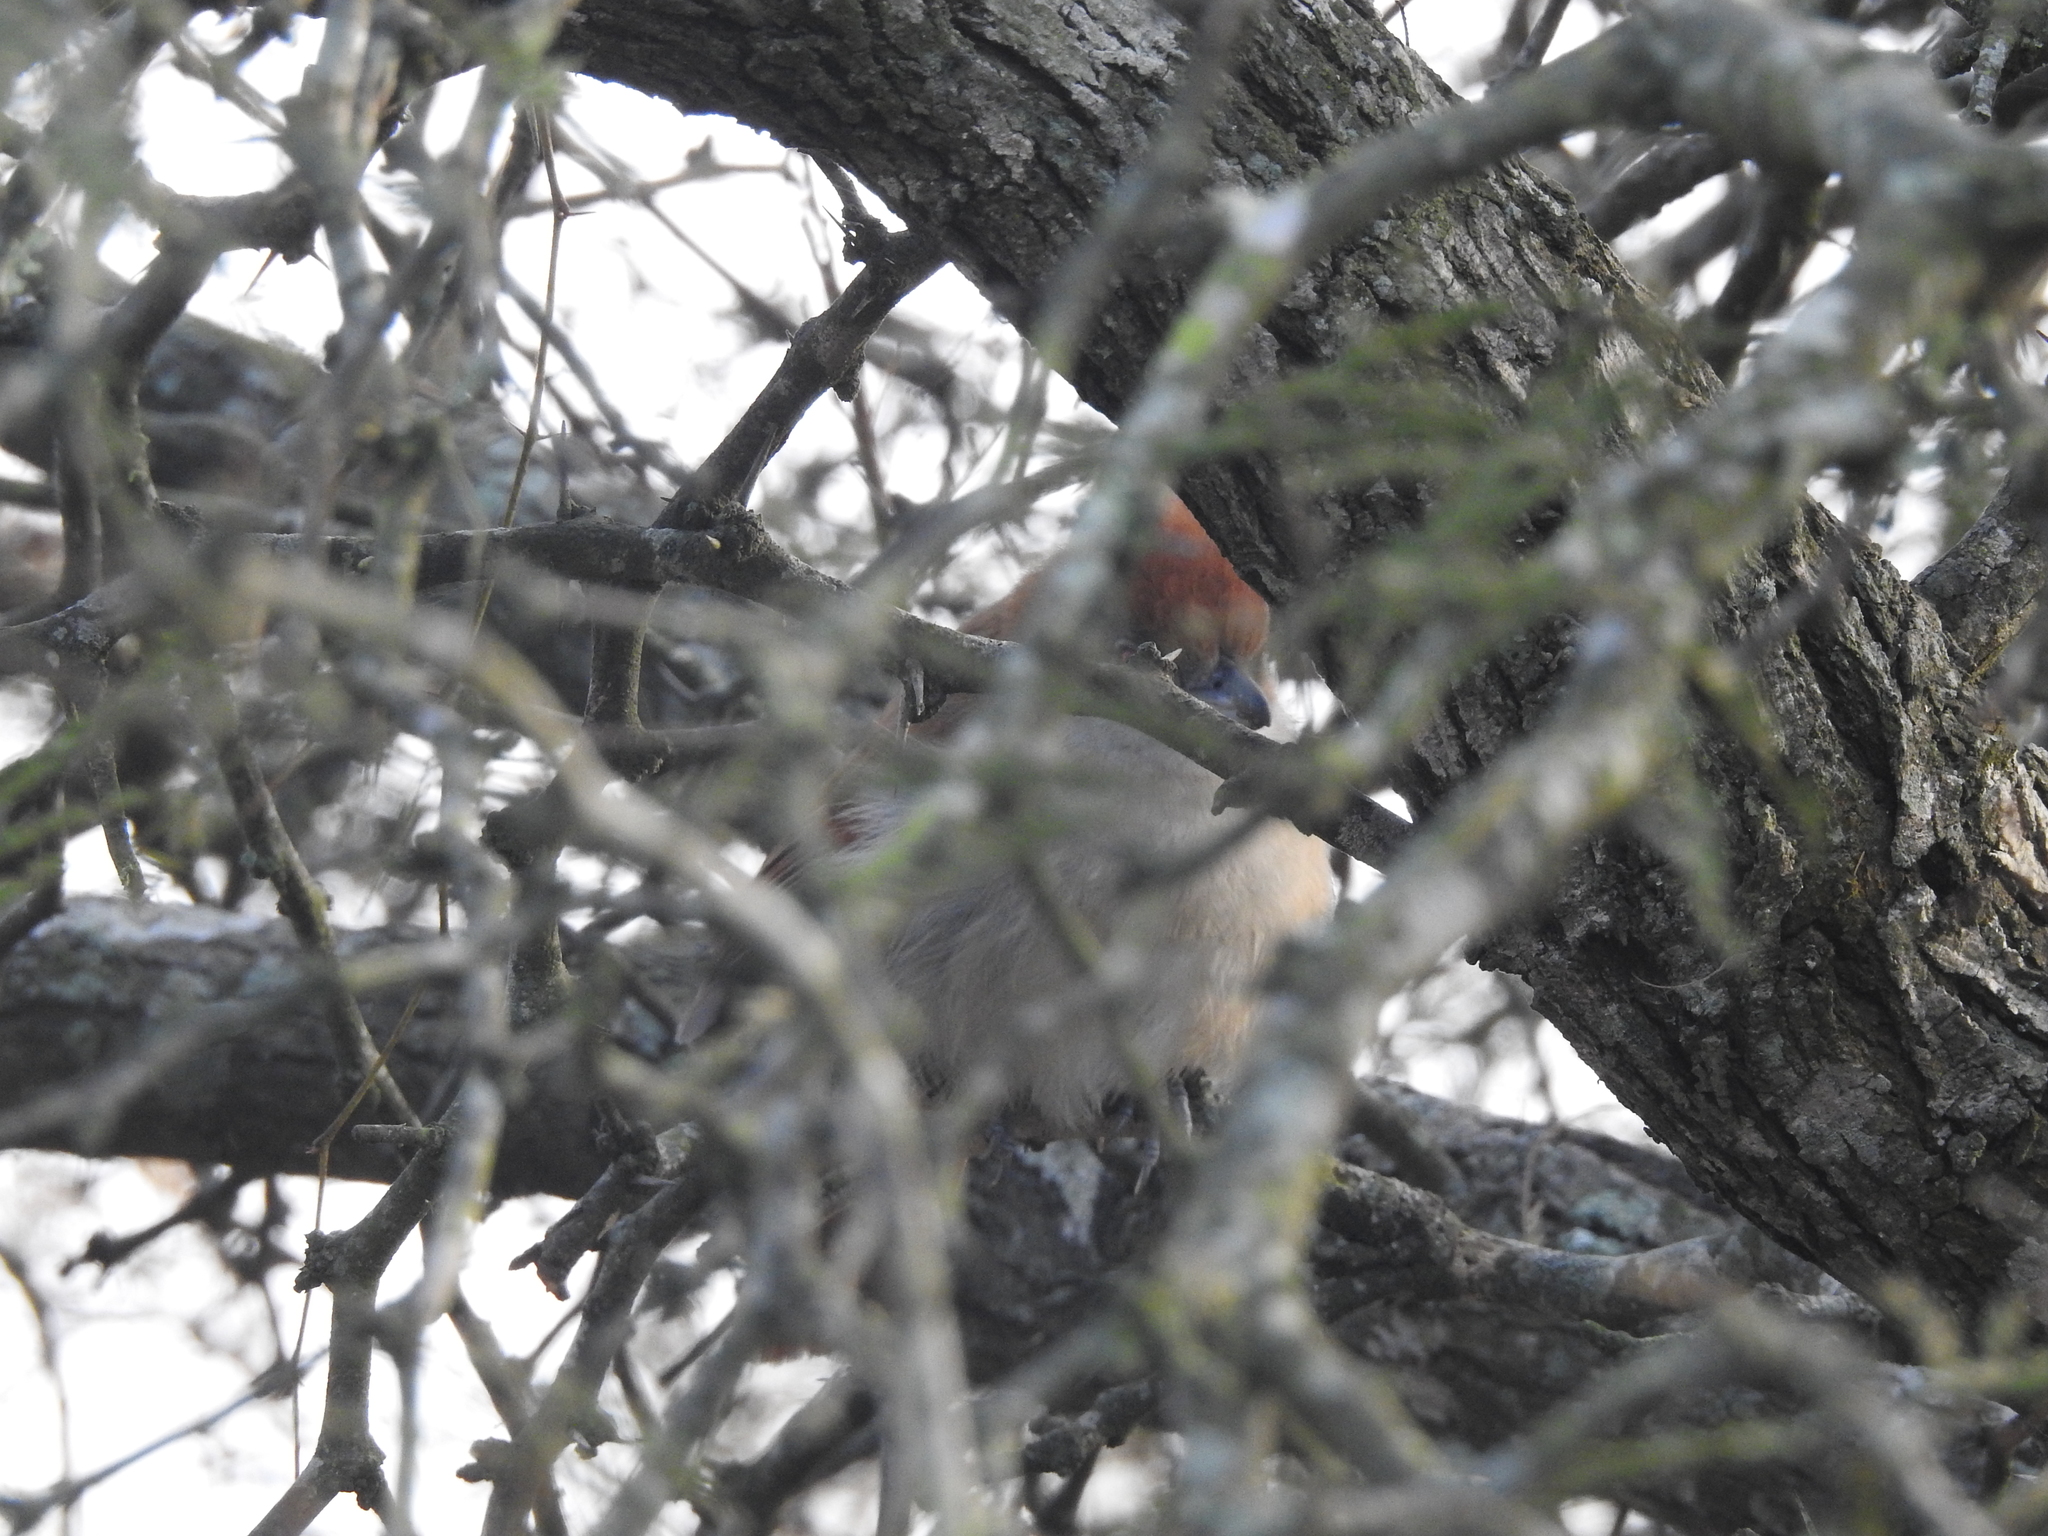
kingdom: Animalia
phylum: Chordata
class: Aves
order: Passeriformes
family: Furnariidae
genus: Phacellodomus
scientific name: Phacellodomus ruber
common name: Greater thornbird
